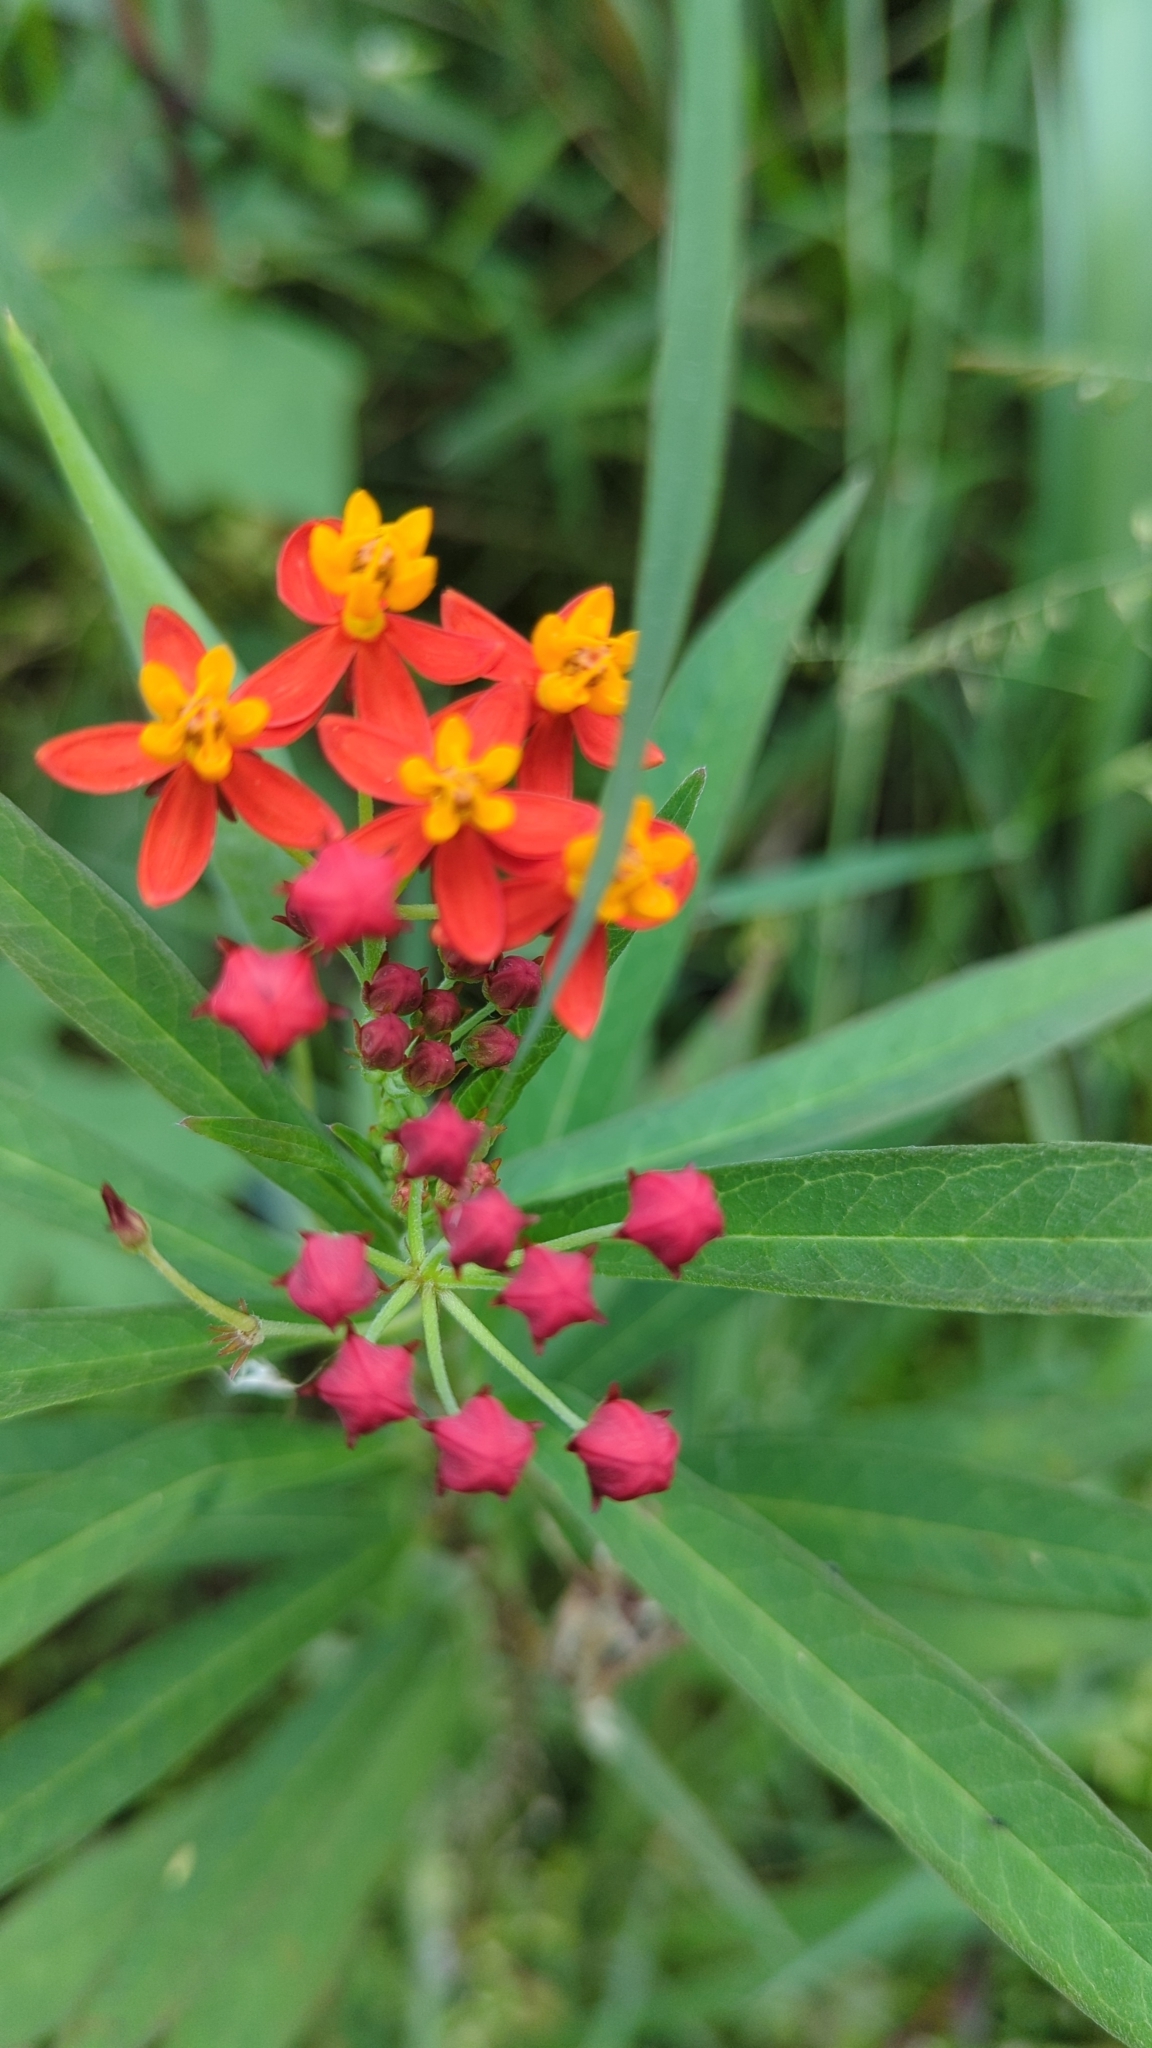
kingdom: Plantae
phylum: Tracheophyta
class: Magnoliopsida
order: Gentianales
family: Apocynaceae
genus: Asclepias
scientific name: Asclepias curassavica
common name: Bloodflower
